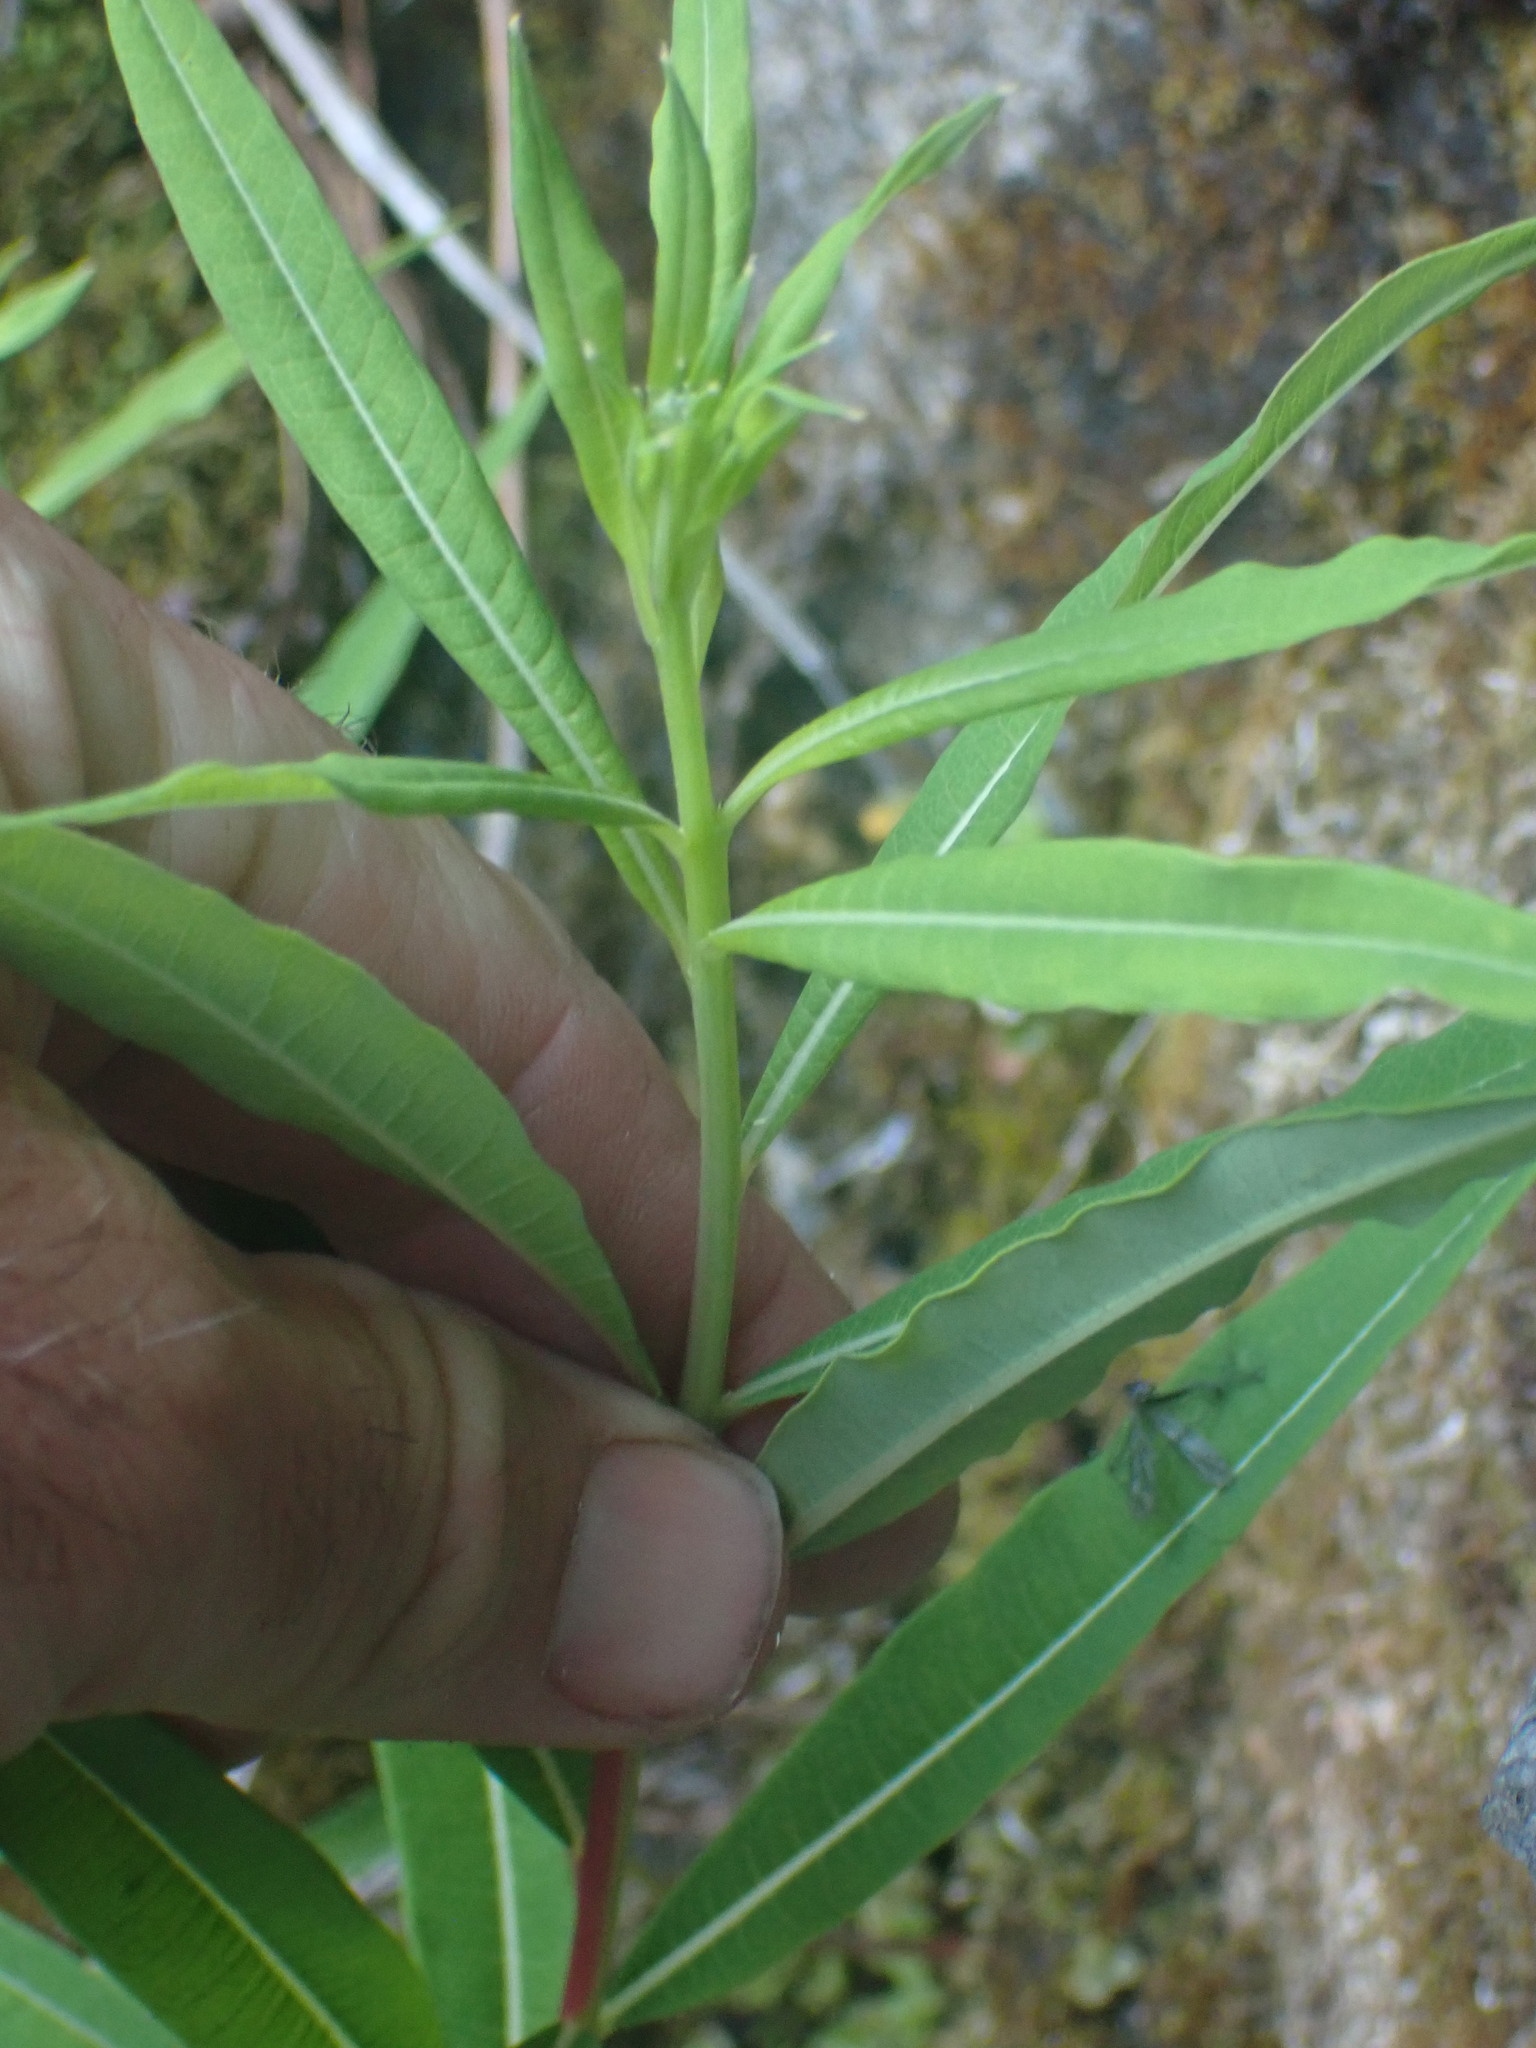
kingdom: Plantae
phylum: Tracheophyta
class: Magnoliopsida
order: Myrtales
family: Onagraceae
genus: Chamaenerion
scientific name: Chamaenerion angustifolium
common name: Fireweed
